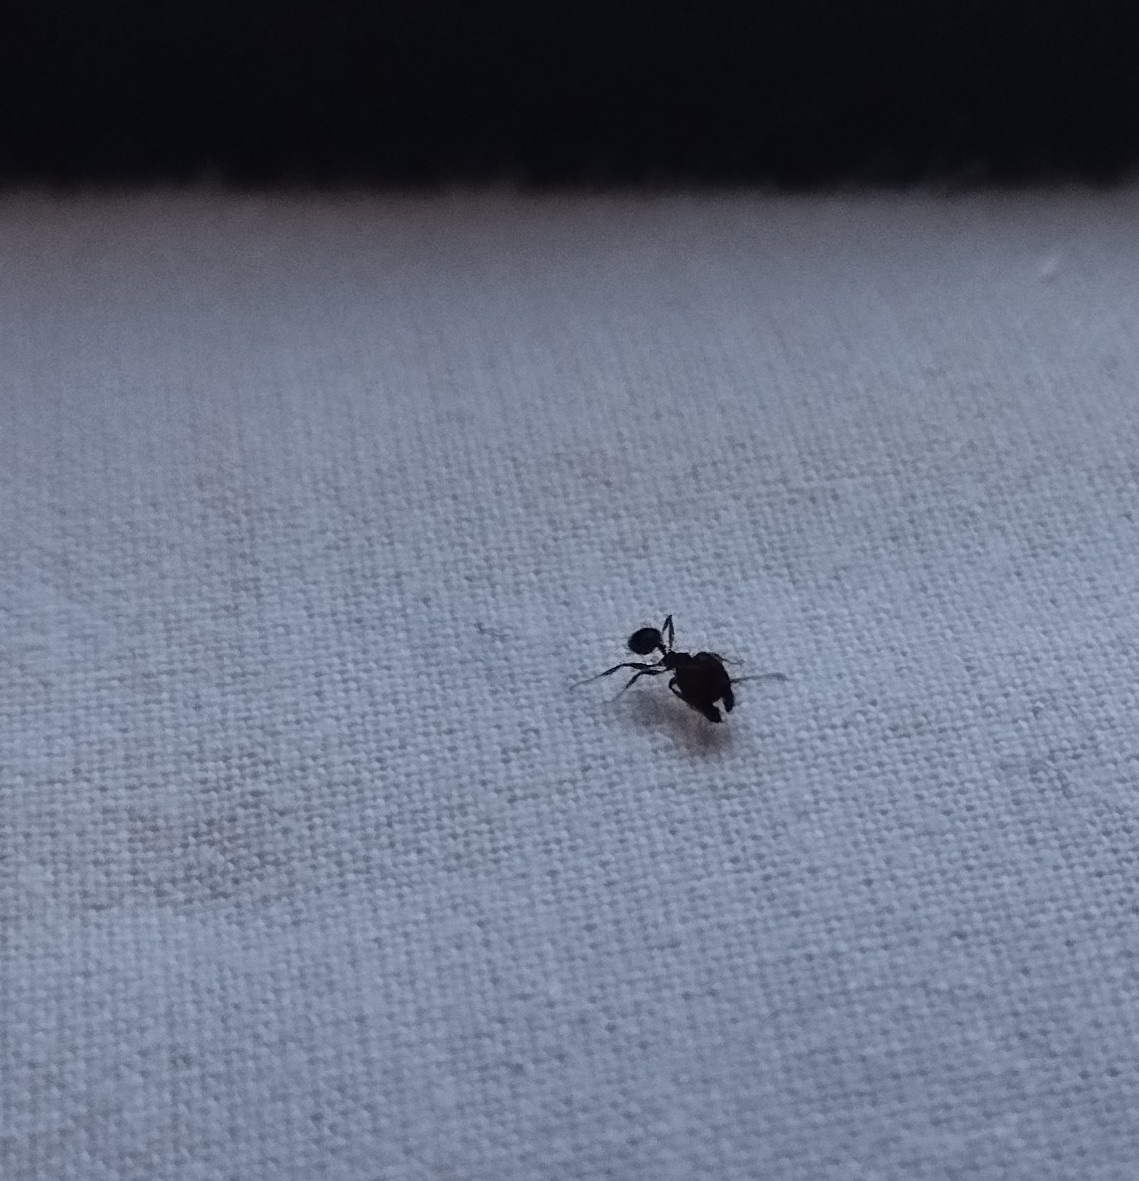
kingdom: Animalia
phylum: Arthropoda
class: Insecta
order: Hymenoptera
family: Formicidae
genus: Pheidole
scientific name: Pheidole pallidula
